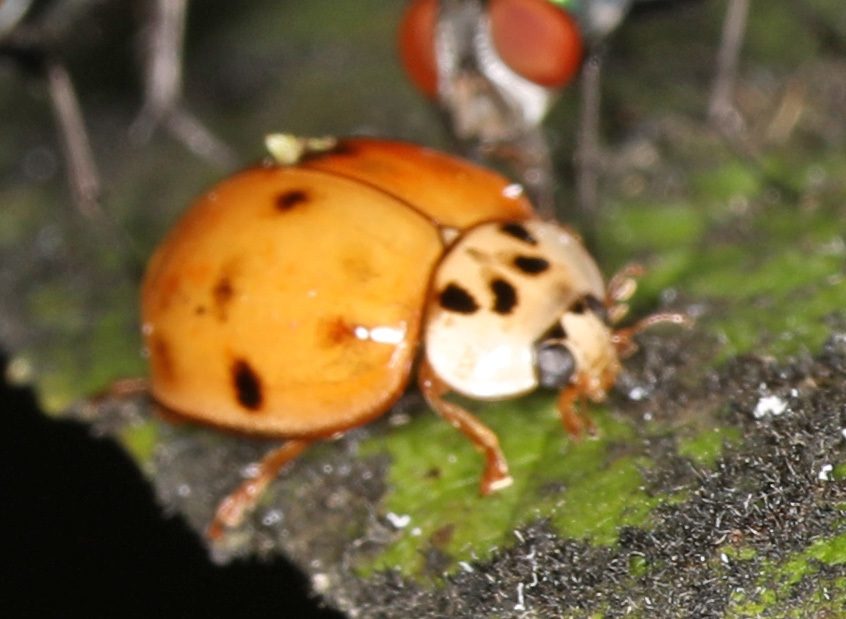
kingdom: Animalia
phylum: Arthropoda
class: Insecta
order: Coleoptera
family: Coccinellidae
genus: Harmonia
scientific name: Harmonia axyridis
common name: Harlequin ladybird
